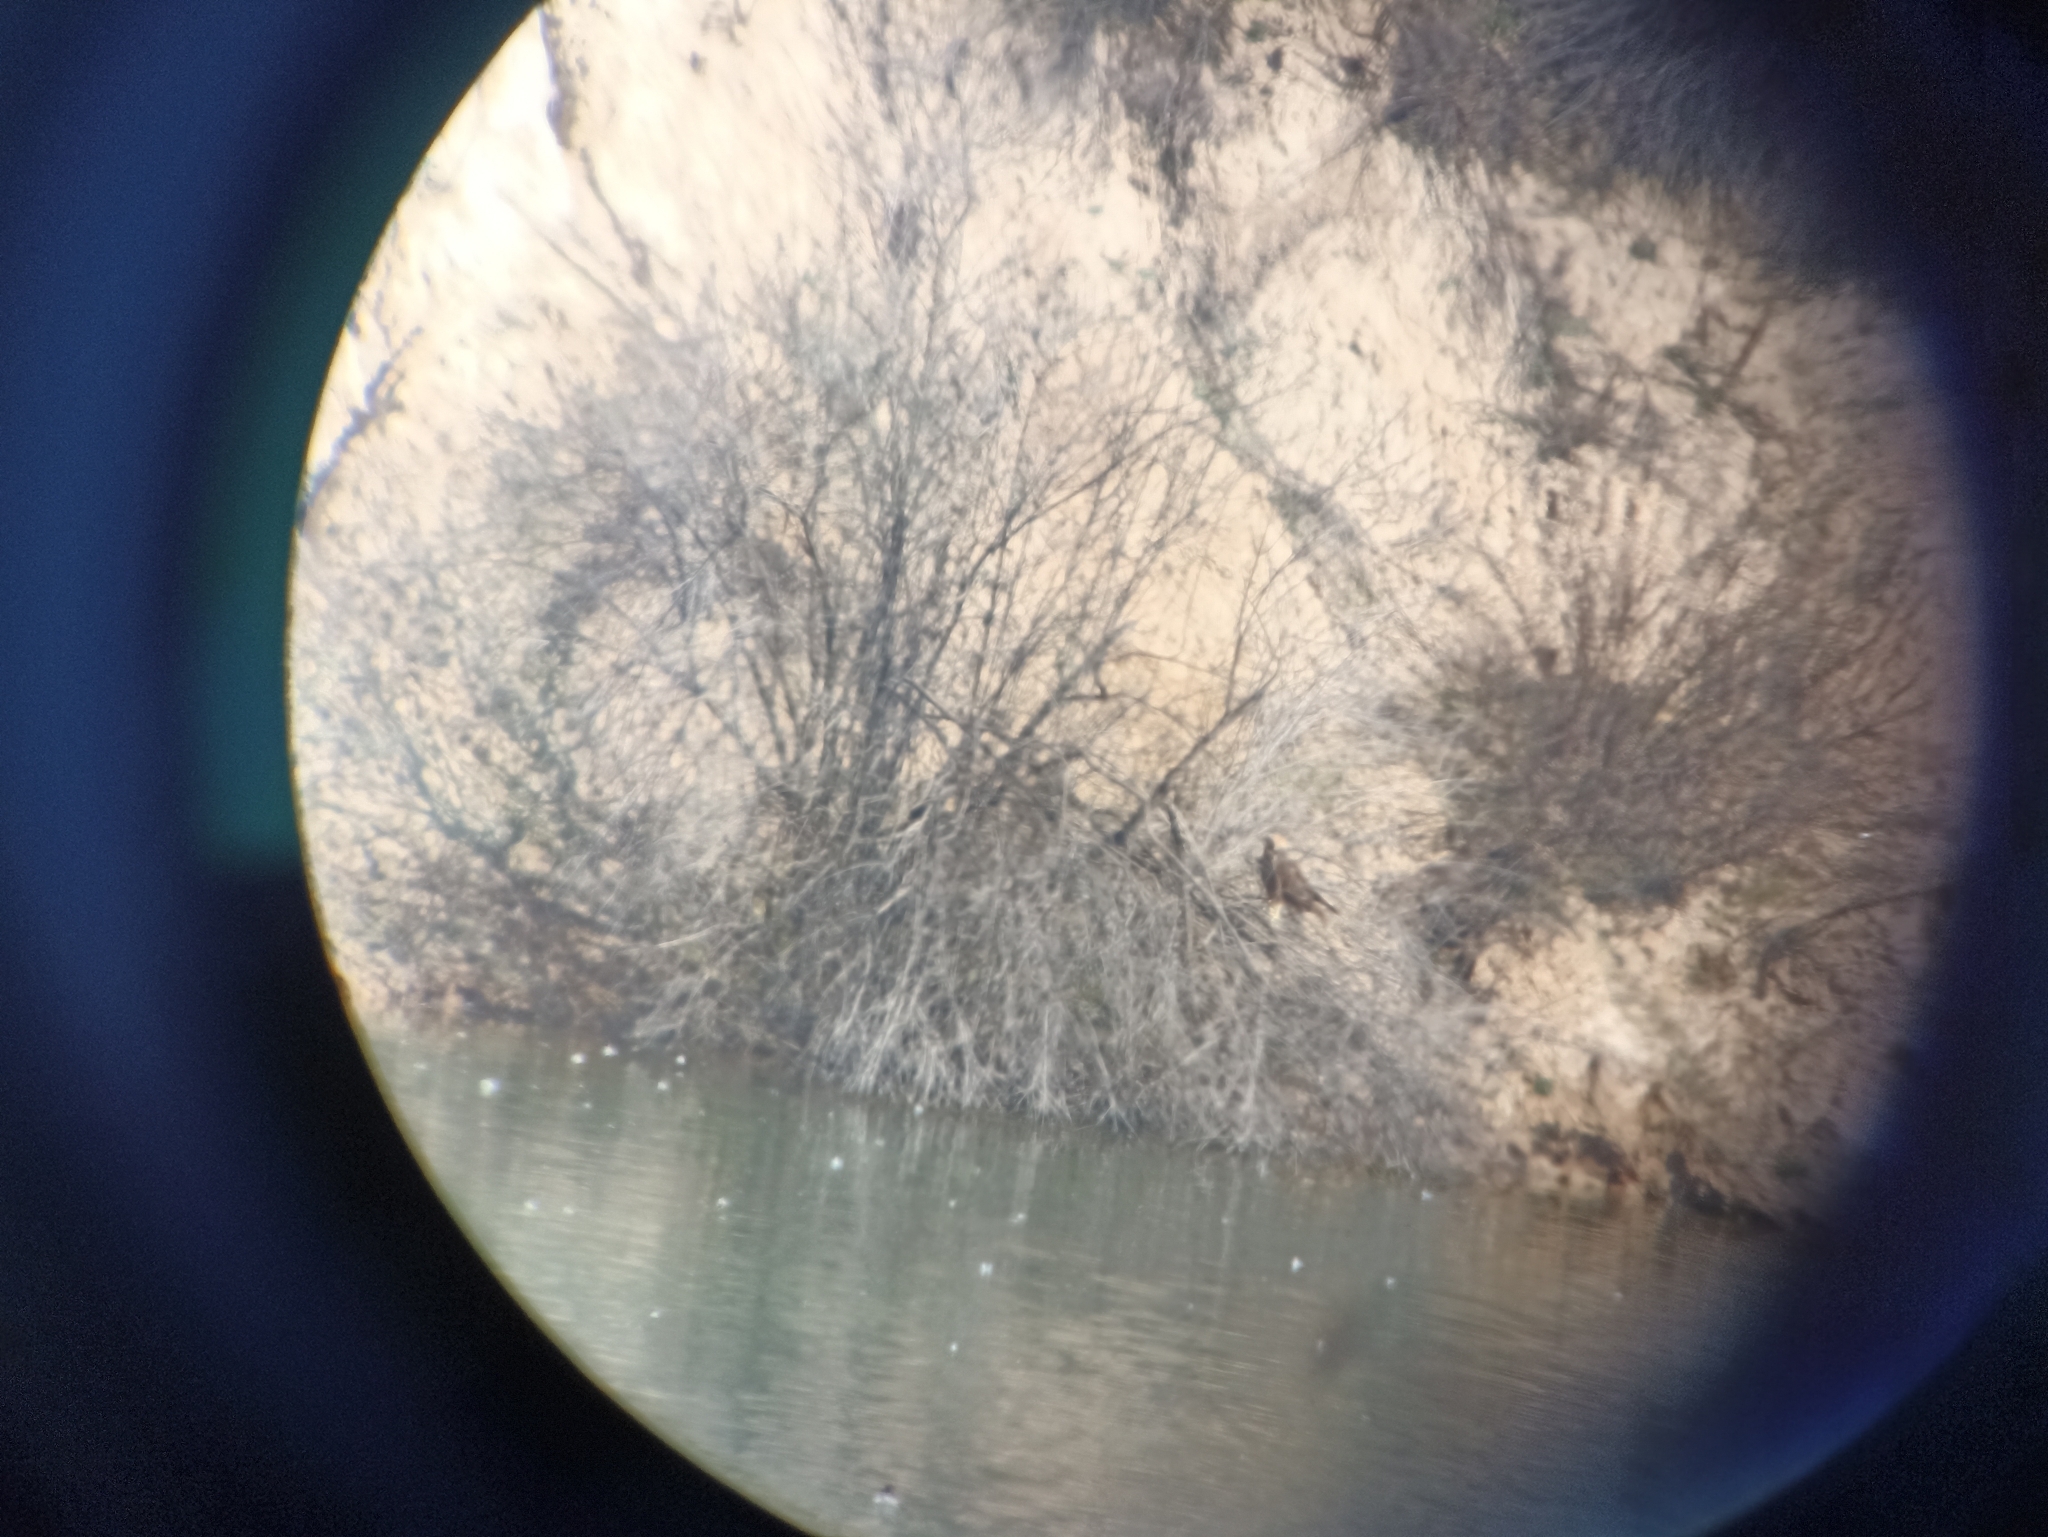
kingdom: Animalia
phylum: Chordata
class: Aves
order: Accipitriformes
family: Accipitridae
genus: Circus
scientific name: Circus aeruginosus
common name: Western marsh harrier
